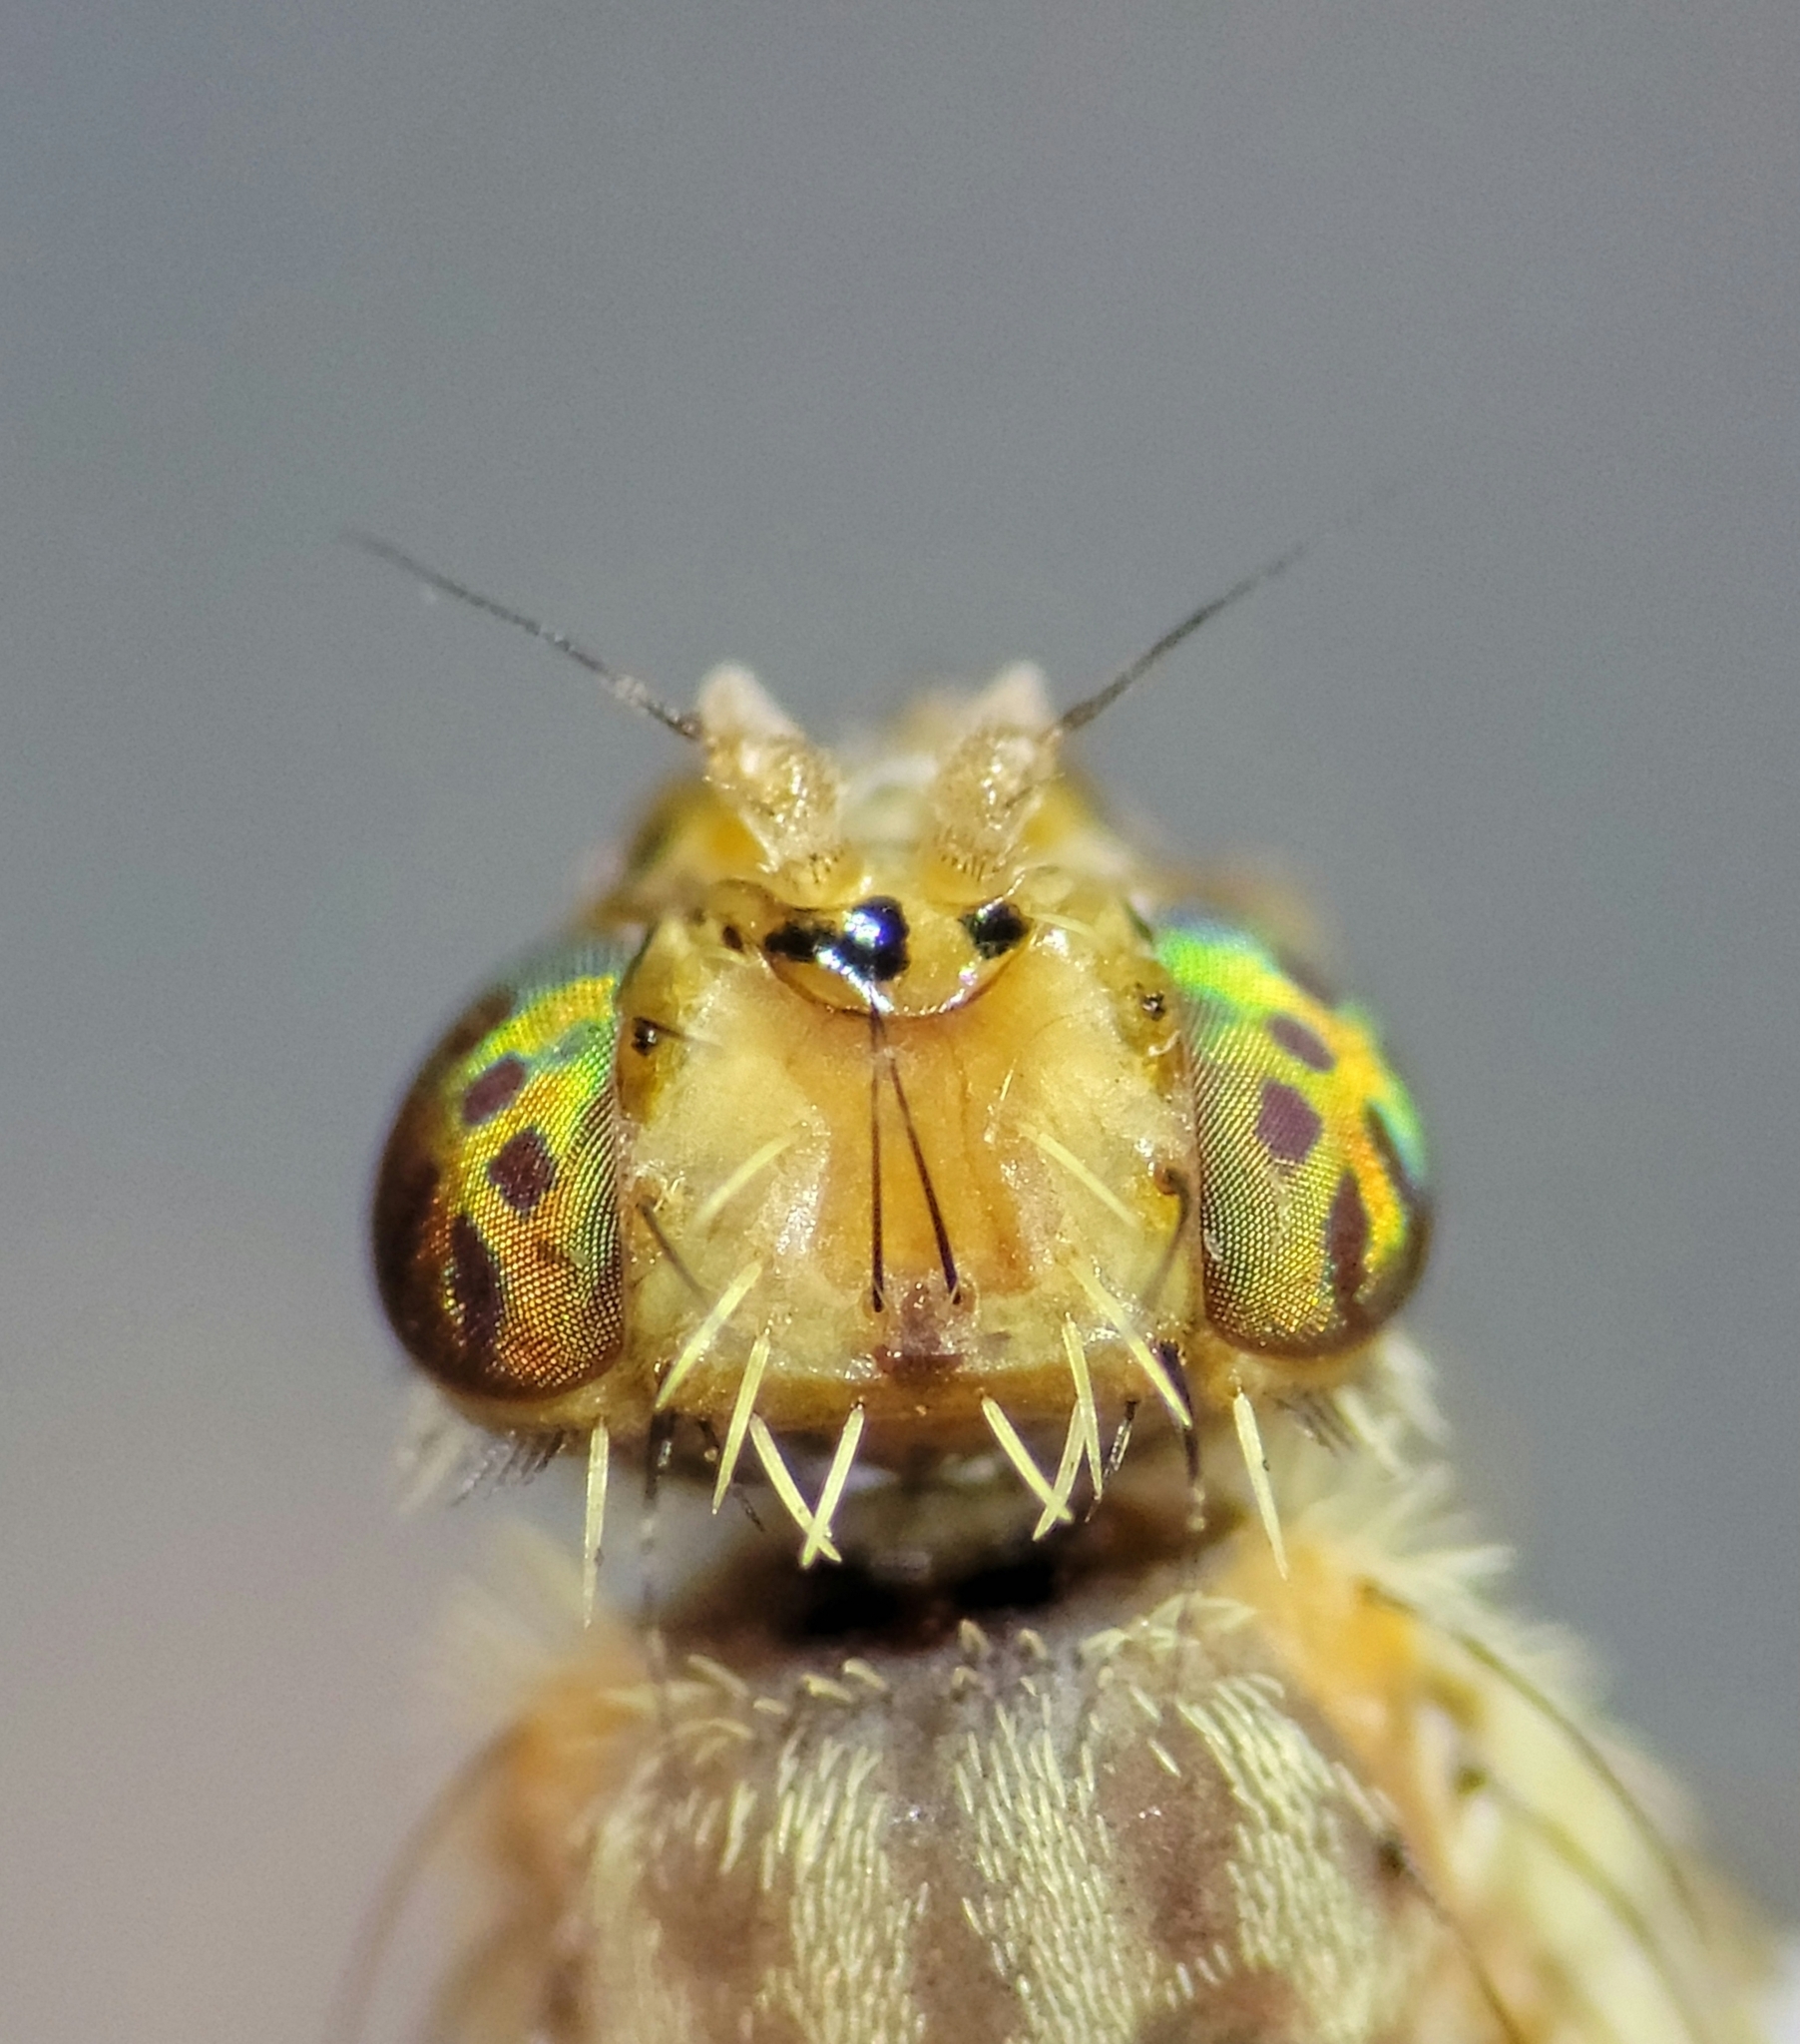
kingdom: Animalia
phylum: Arthropoda
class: Insecta
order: Diptera
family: Tephritidae
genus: Paracantha
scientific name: Paracantha cultaris
